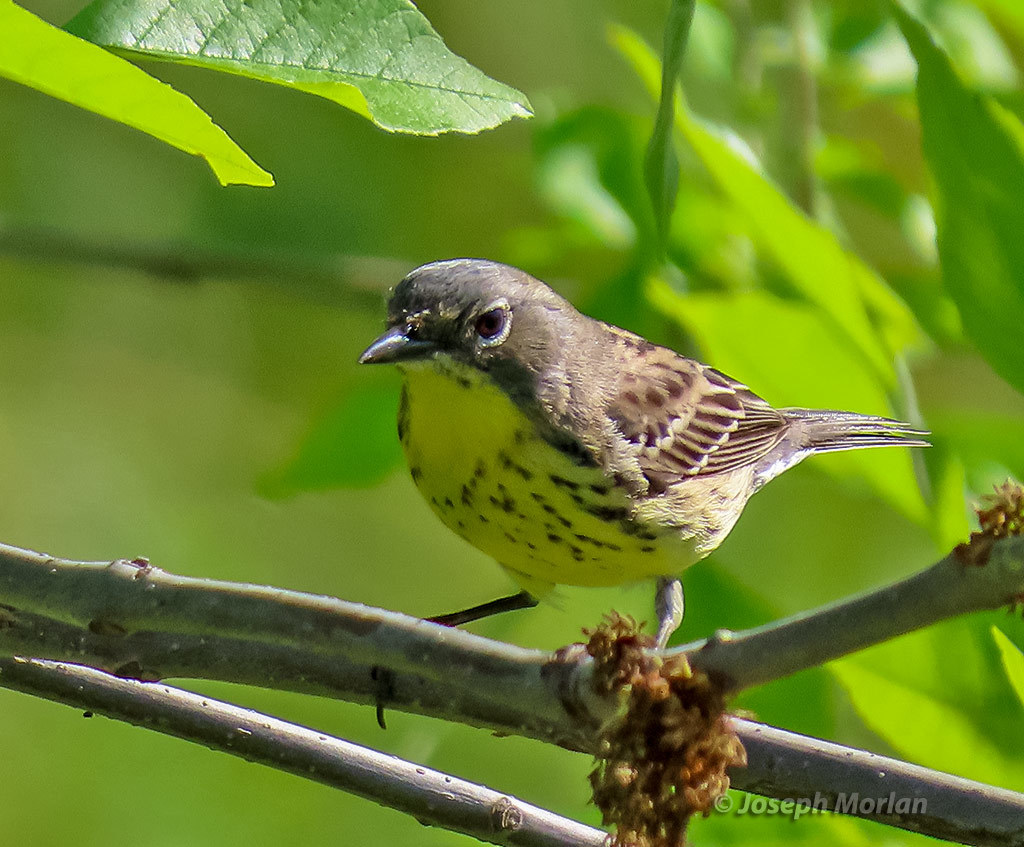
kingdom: Animalia
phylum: Chordata
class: Aves
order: Passeriformes
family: Parulidae
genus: Setophaga
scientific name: Setophaga kirtlandii
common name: Kirtland's warbler
